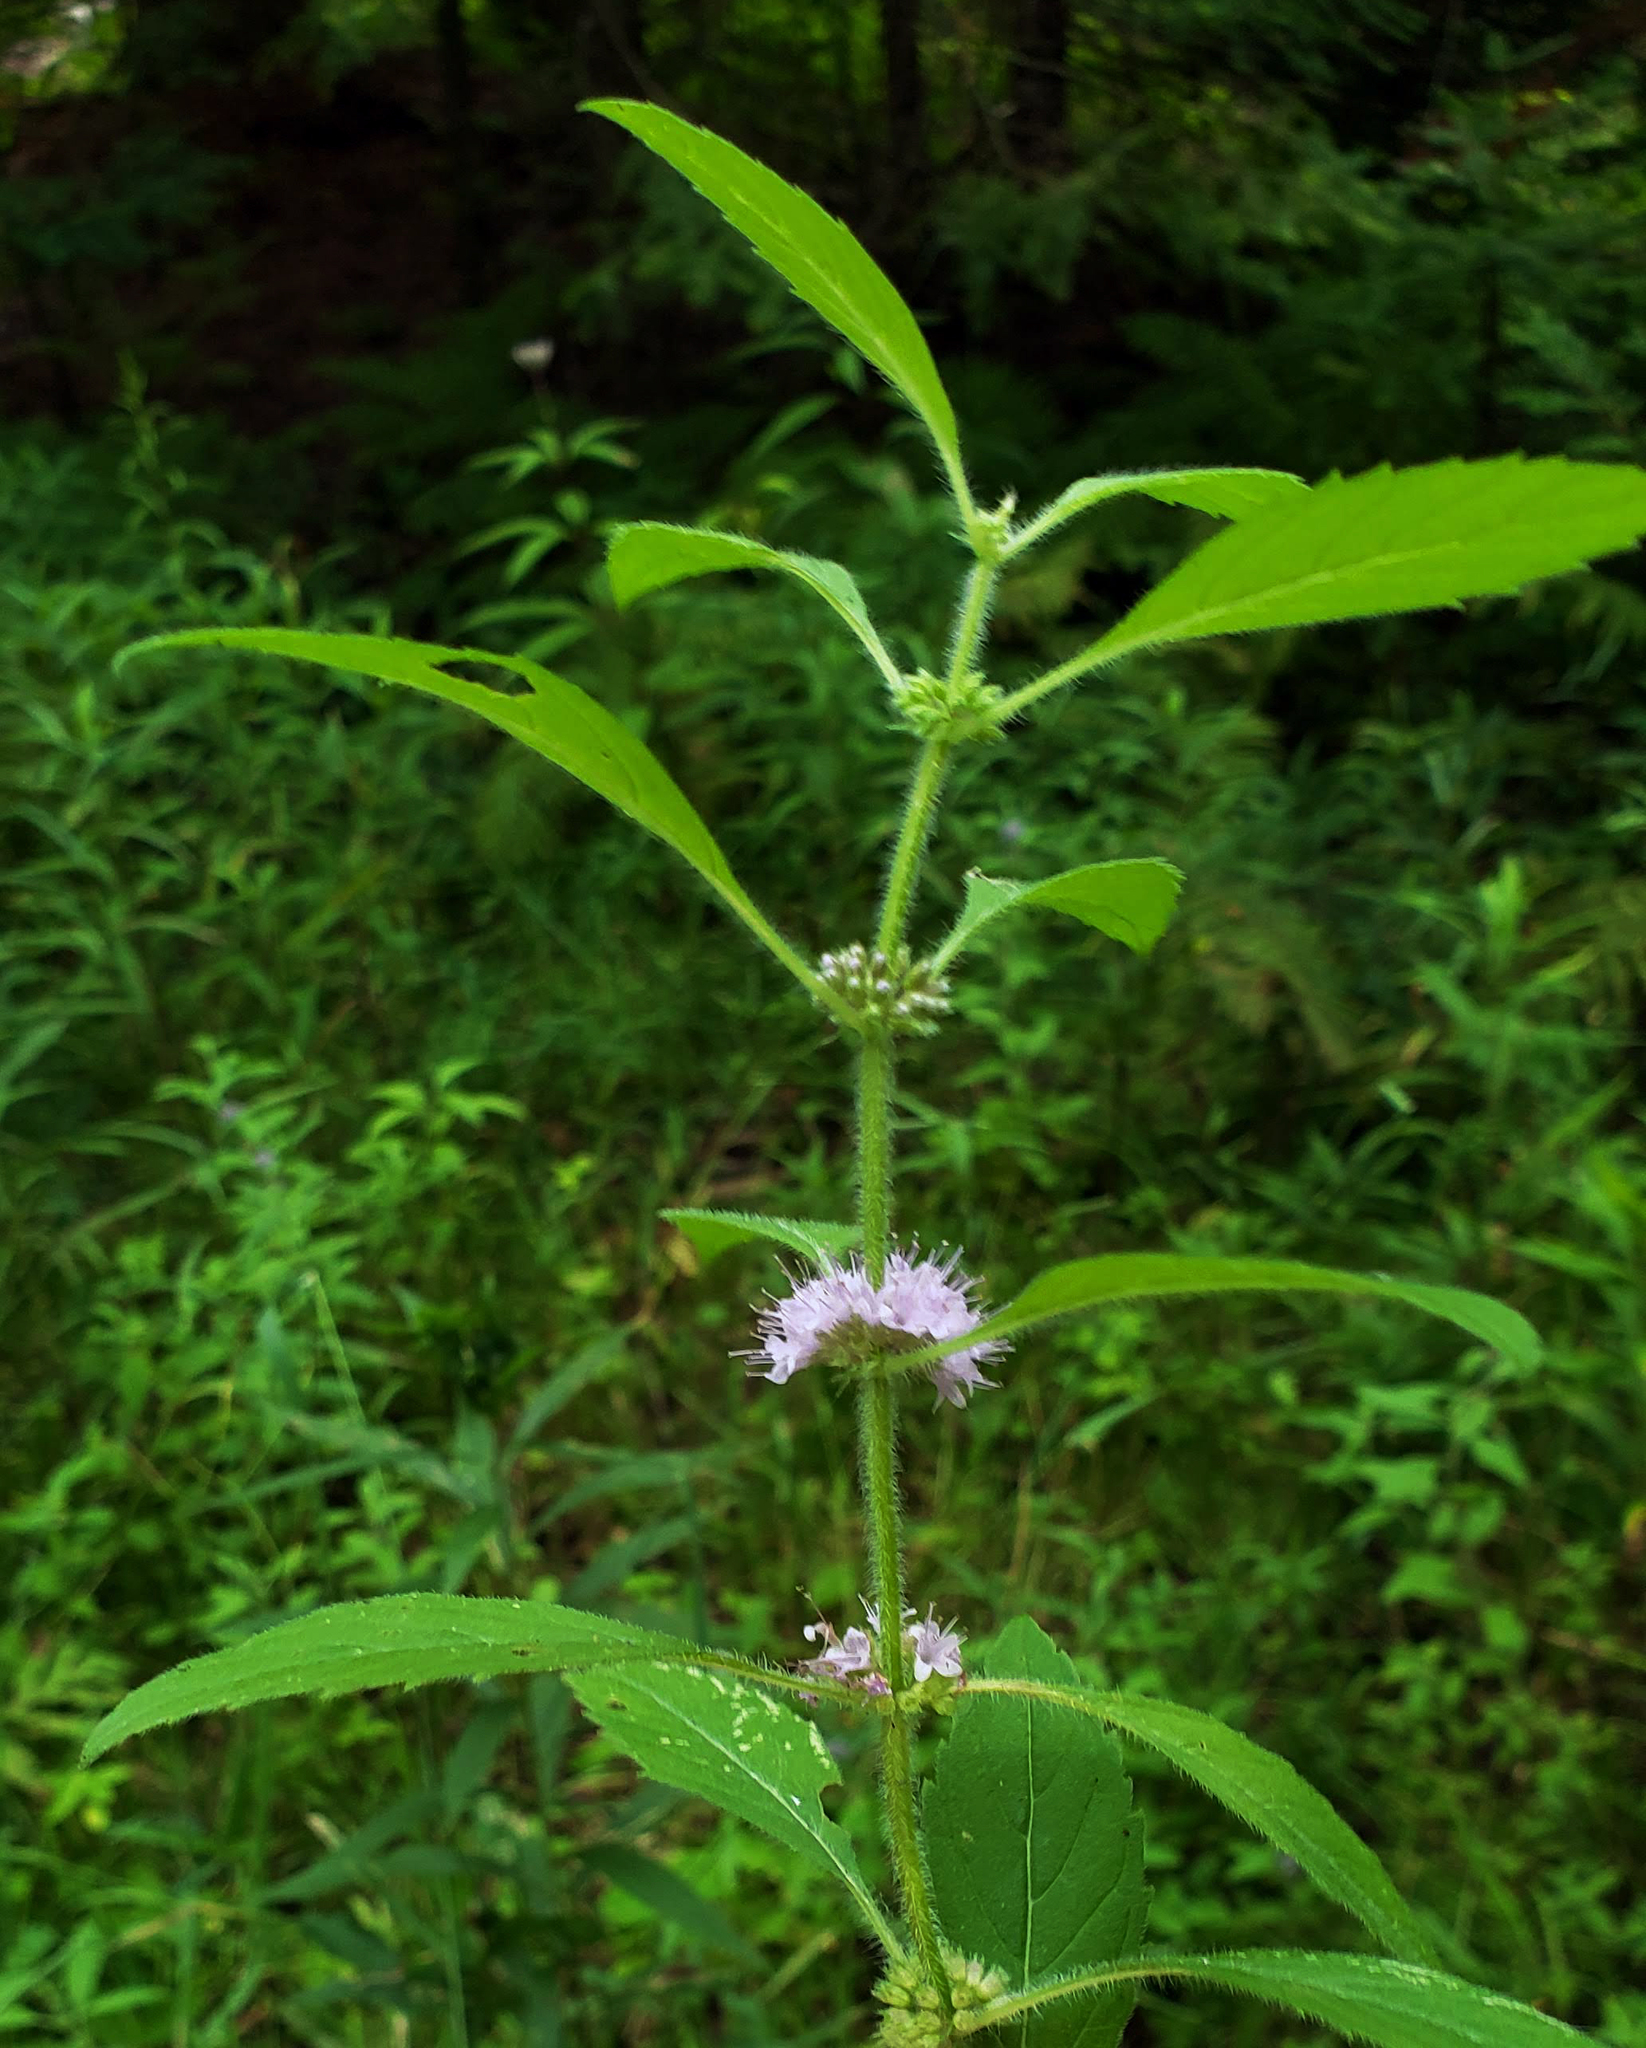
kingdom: Plantae
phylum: Tracheophyta
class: Magnoliopsida
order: Lamiales
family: Lamiaceae
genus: Mentha
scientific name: Mentha canadensis
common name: American corn mint
